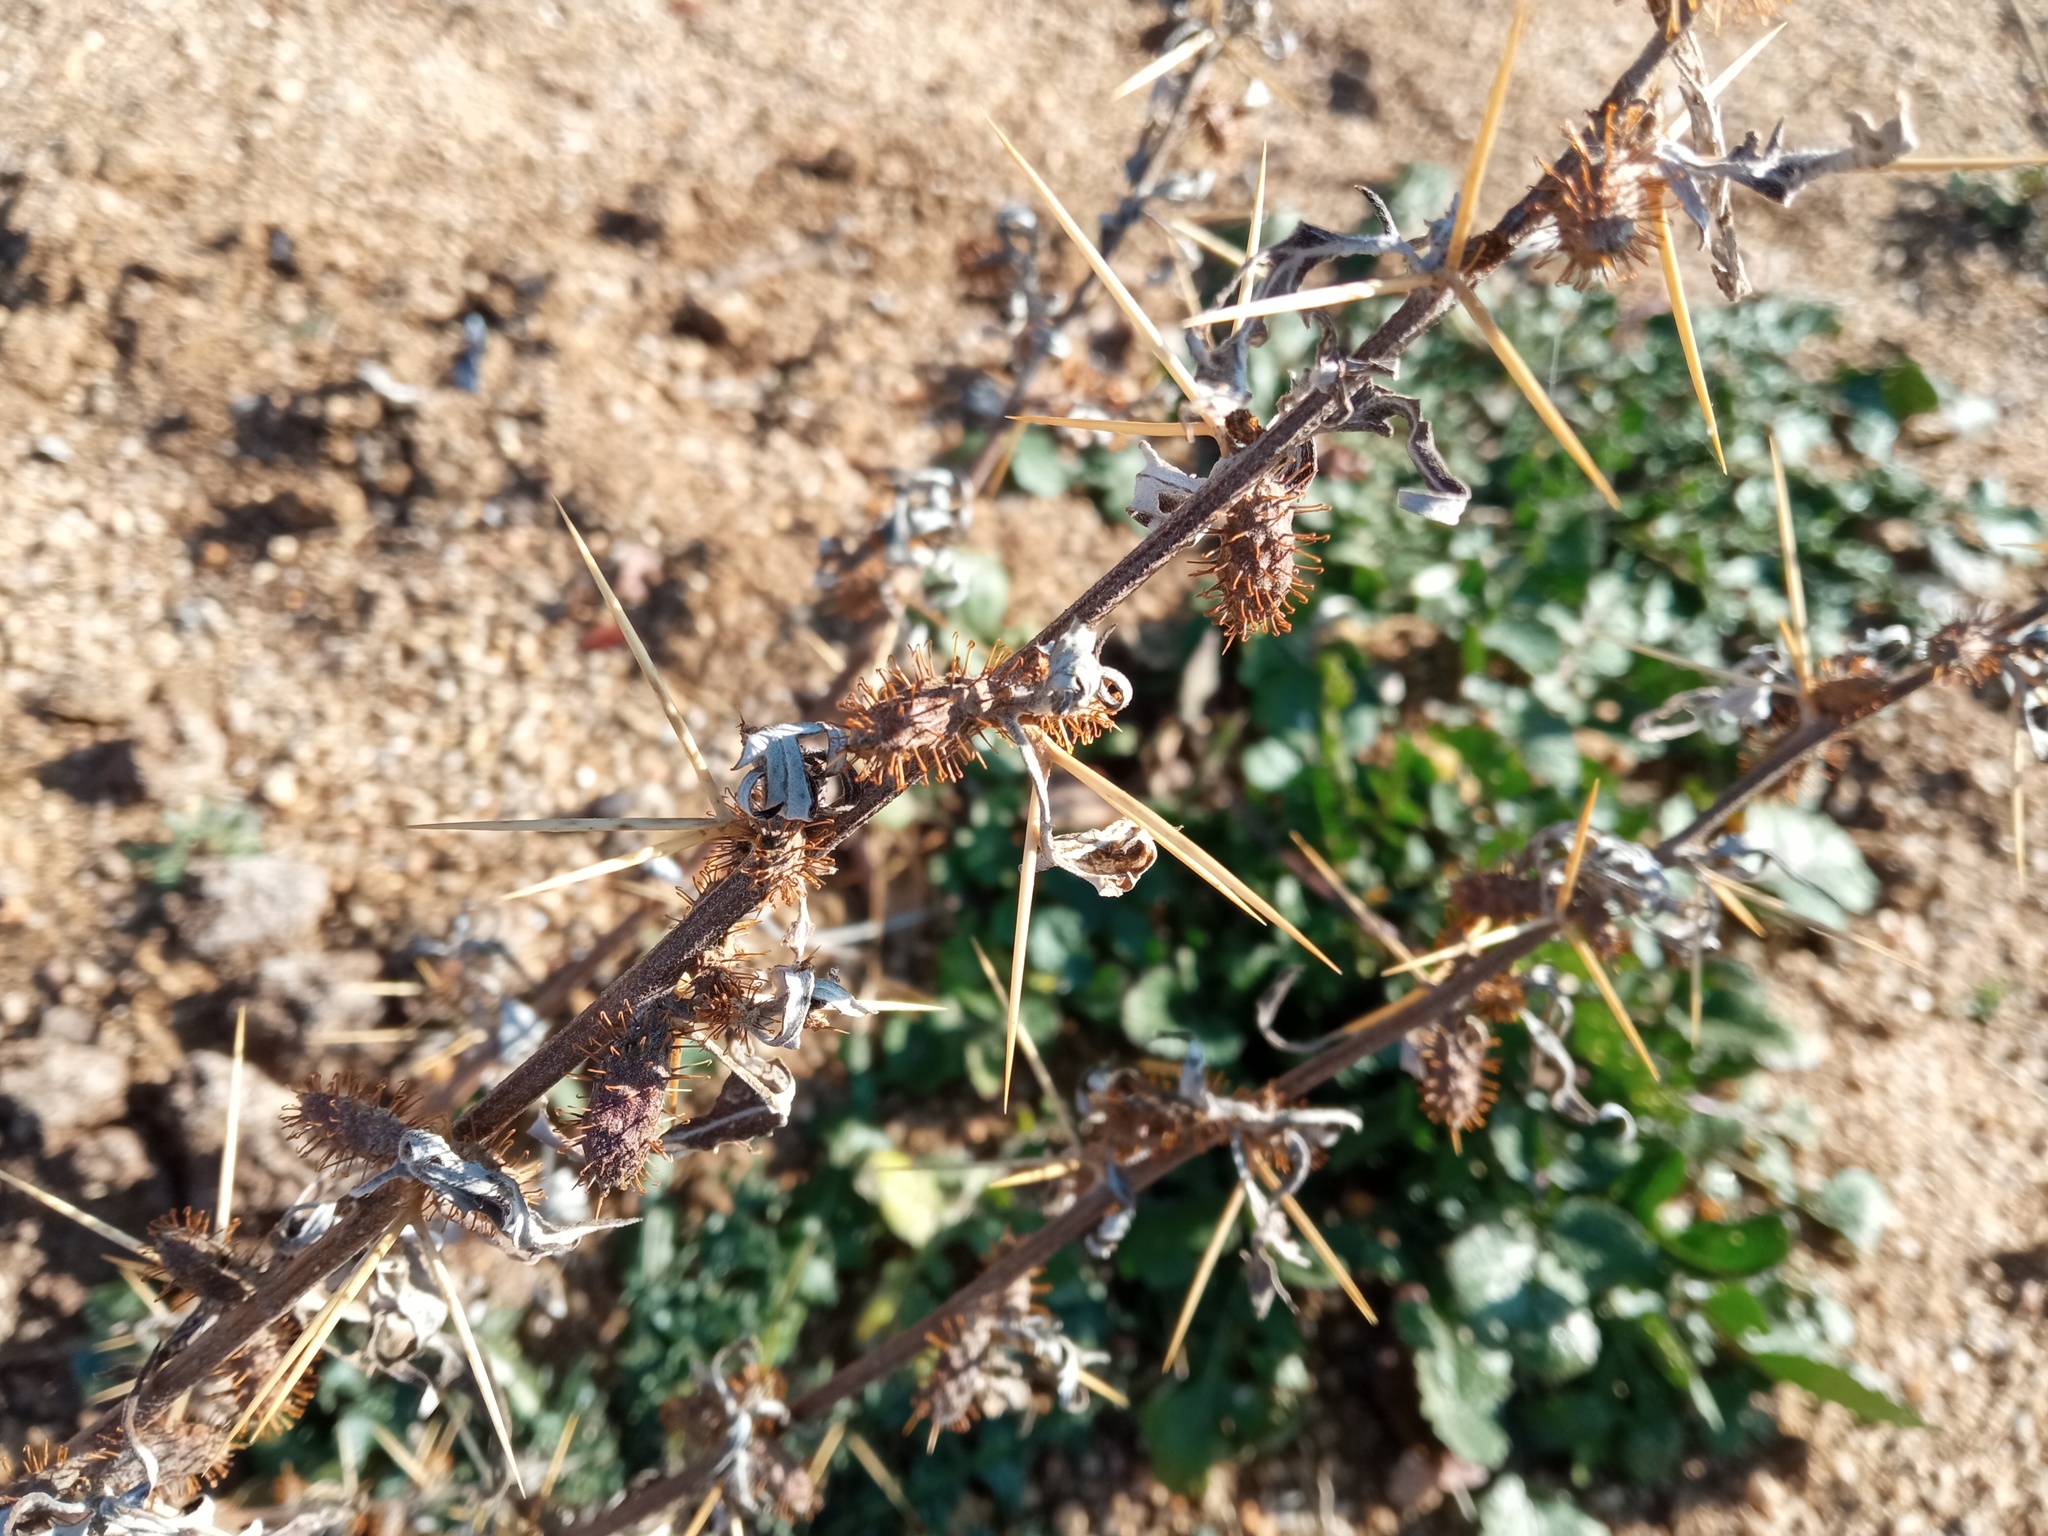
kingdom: Plantae
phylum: Tracheophyta
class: Magnoliopsida
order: Asterales
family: Asteraceae
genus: Xanthium
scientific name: Xanthium spinosum
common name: Spiny cocklebur
